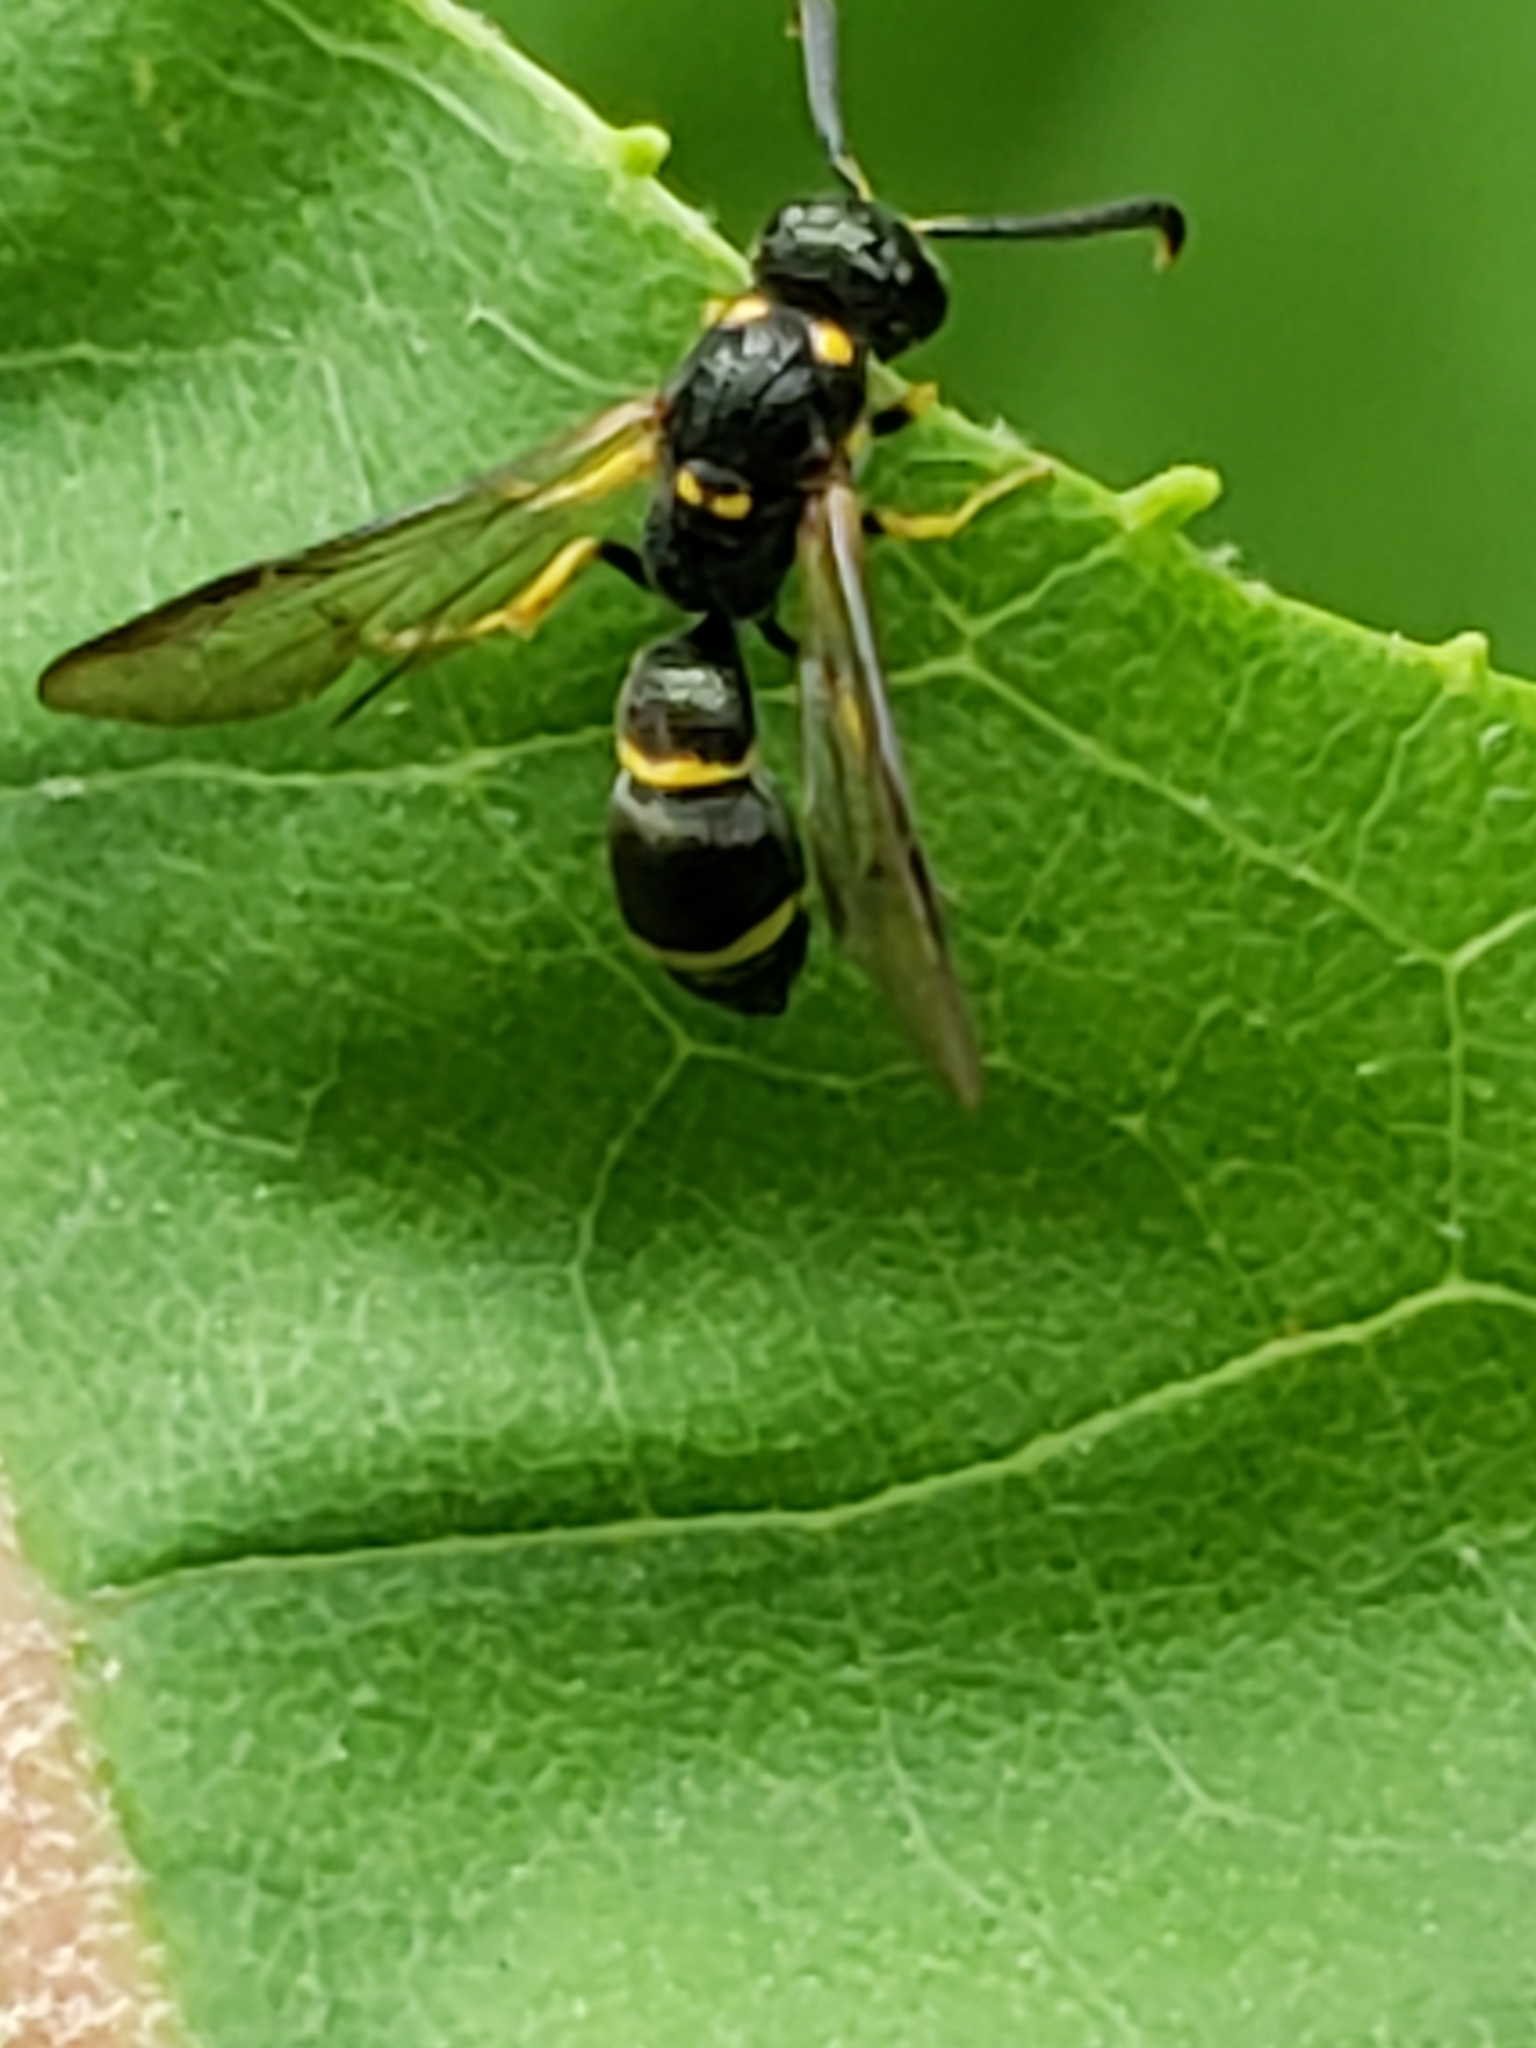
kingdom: Animalia
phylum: Arthropoda
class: Insecta
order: Hymenoptera
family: Eumenidae
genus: Symmorphus
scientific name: Symmorphus
